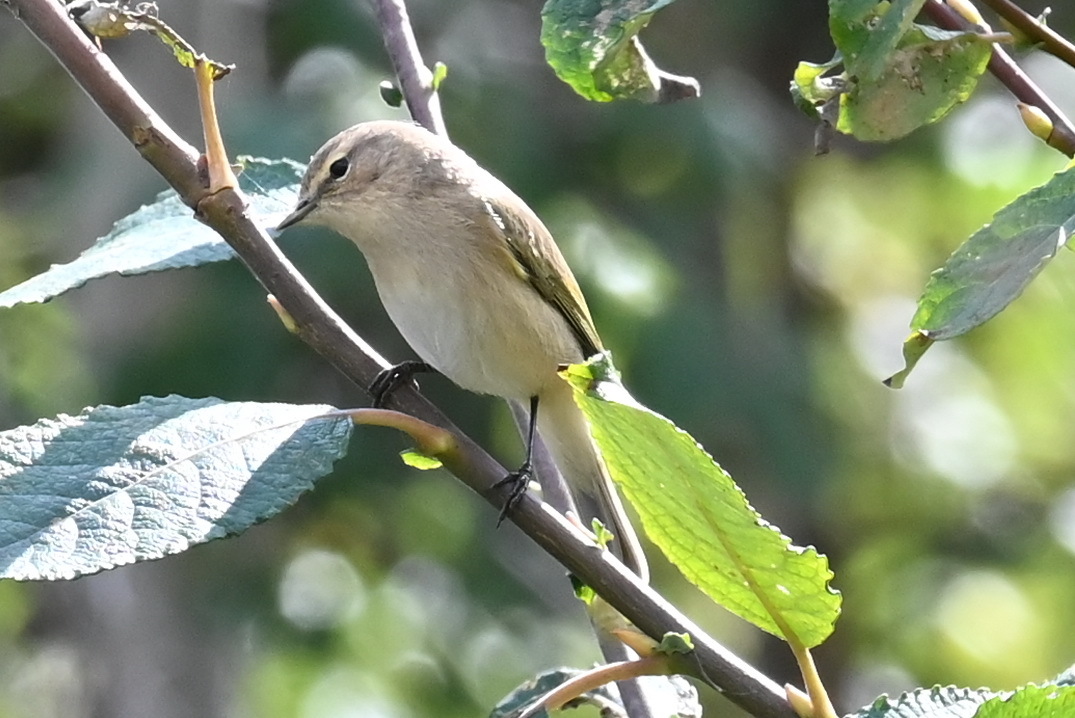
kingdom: Animalia
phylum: Chordata
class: Aves
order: Passeriformes
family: Phylloscopidae
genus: Phylloscopus
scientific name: Phylloscopus collybita
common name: Common chiffchaff
